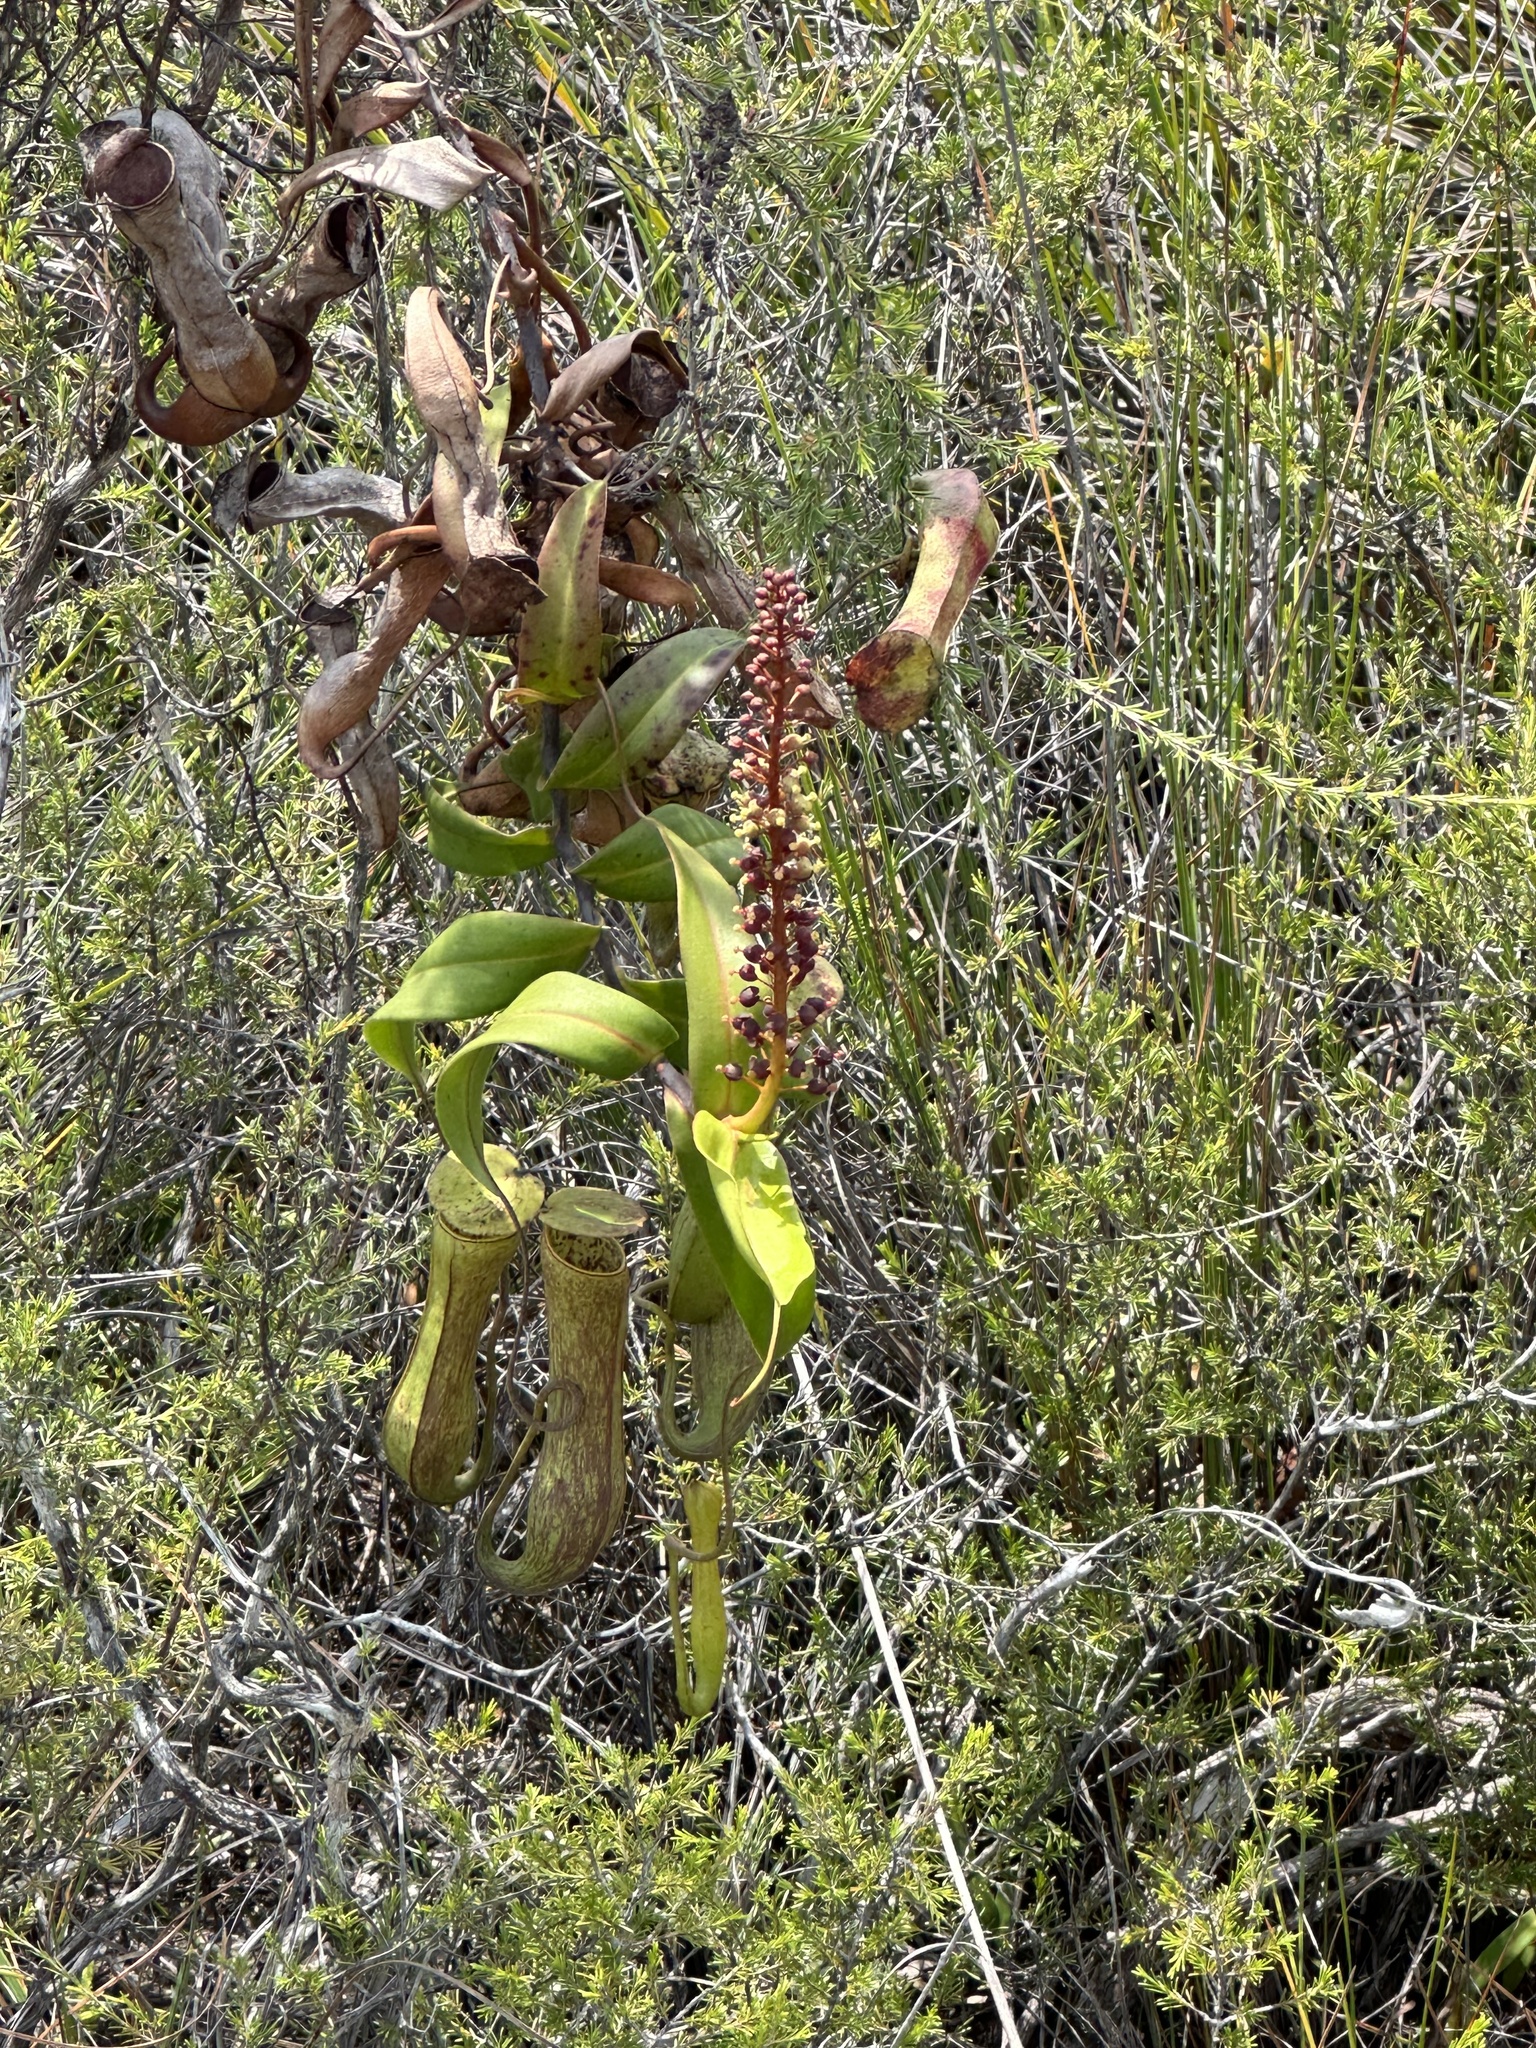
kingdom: Plantae
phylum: Tracheophyta
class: Magnoliopsida
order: Caryophyllales
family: Nepenthaceae
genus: Nepenthes
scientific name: Nepenthes gracilis
